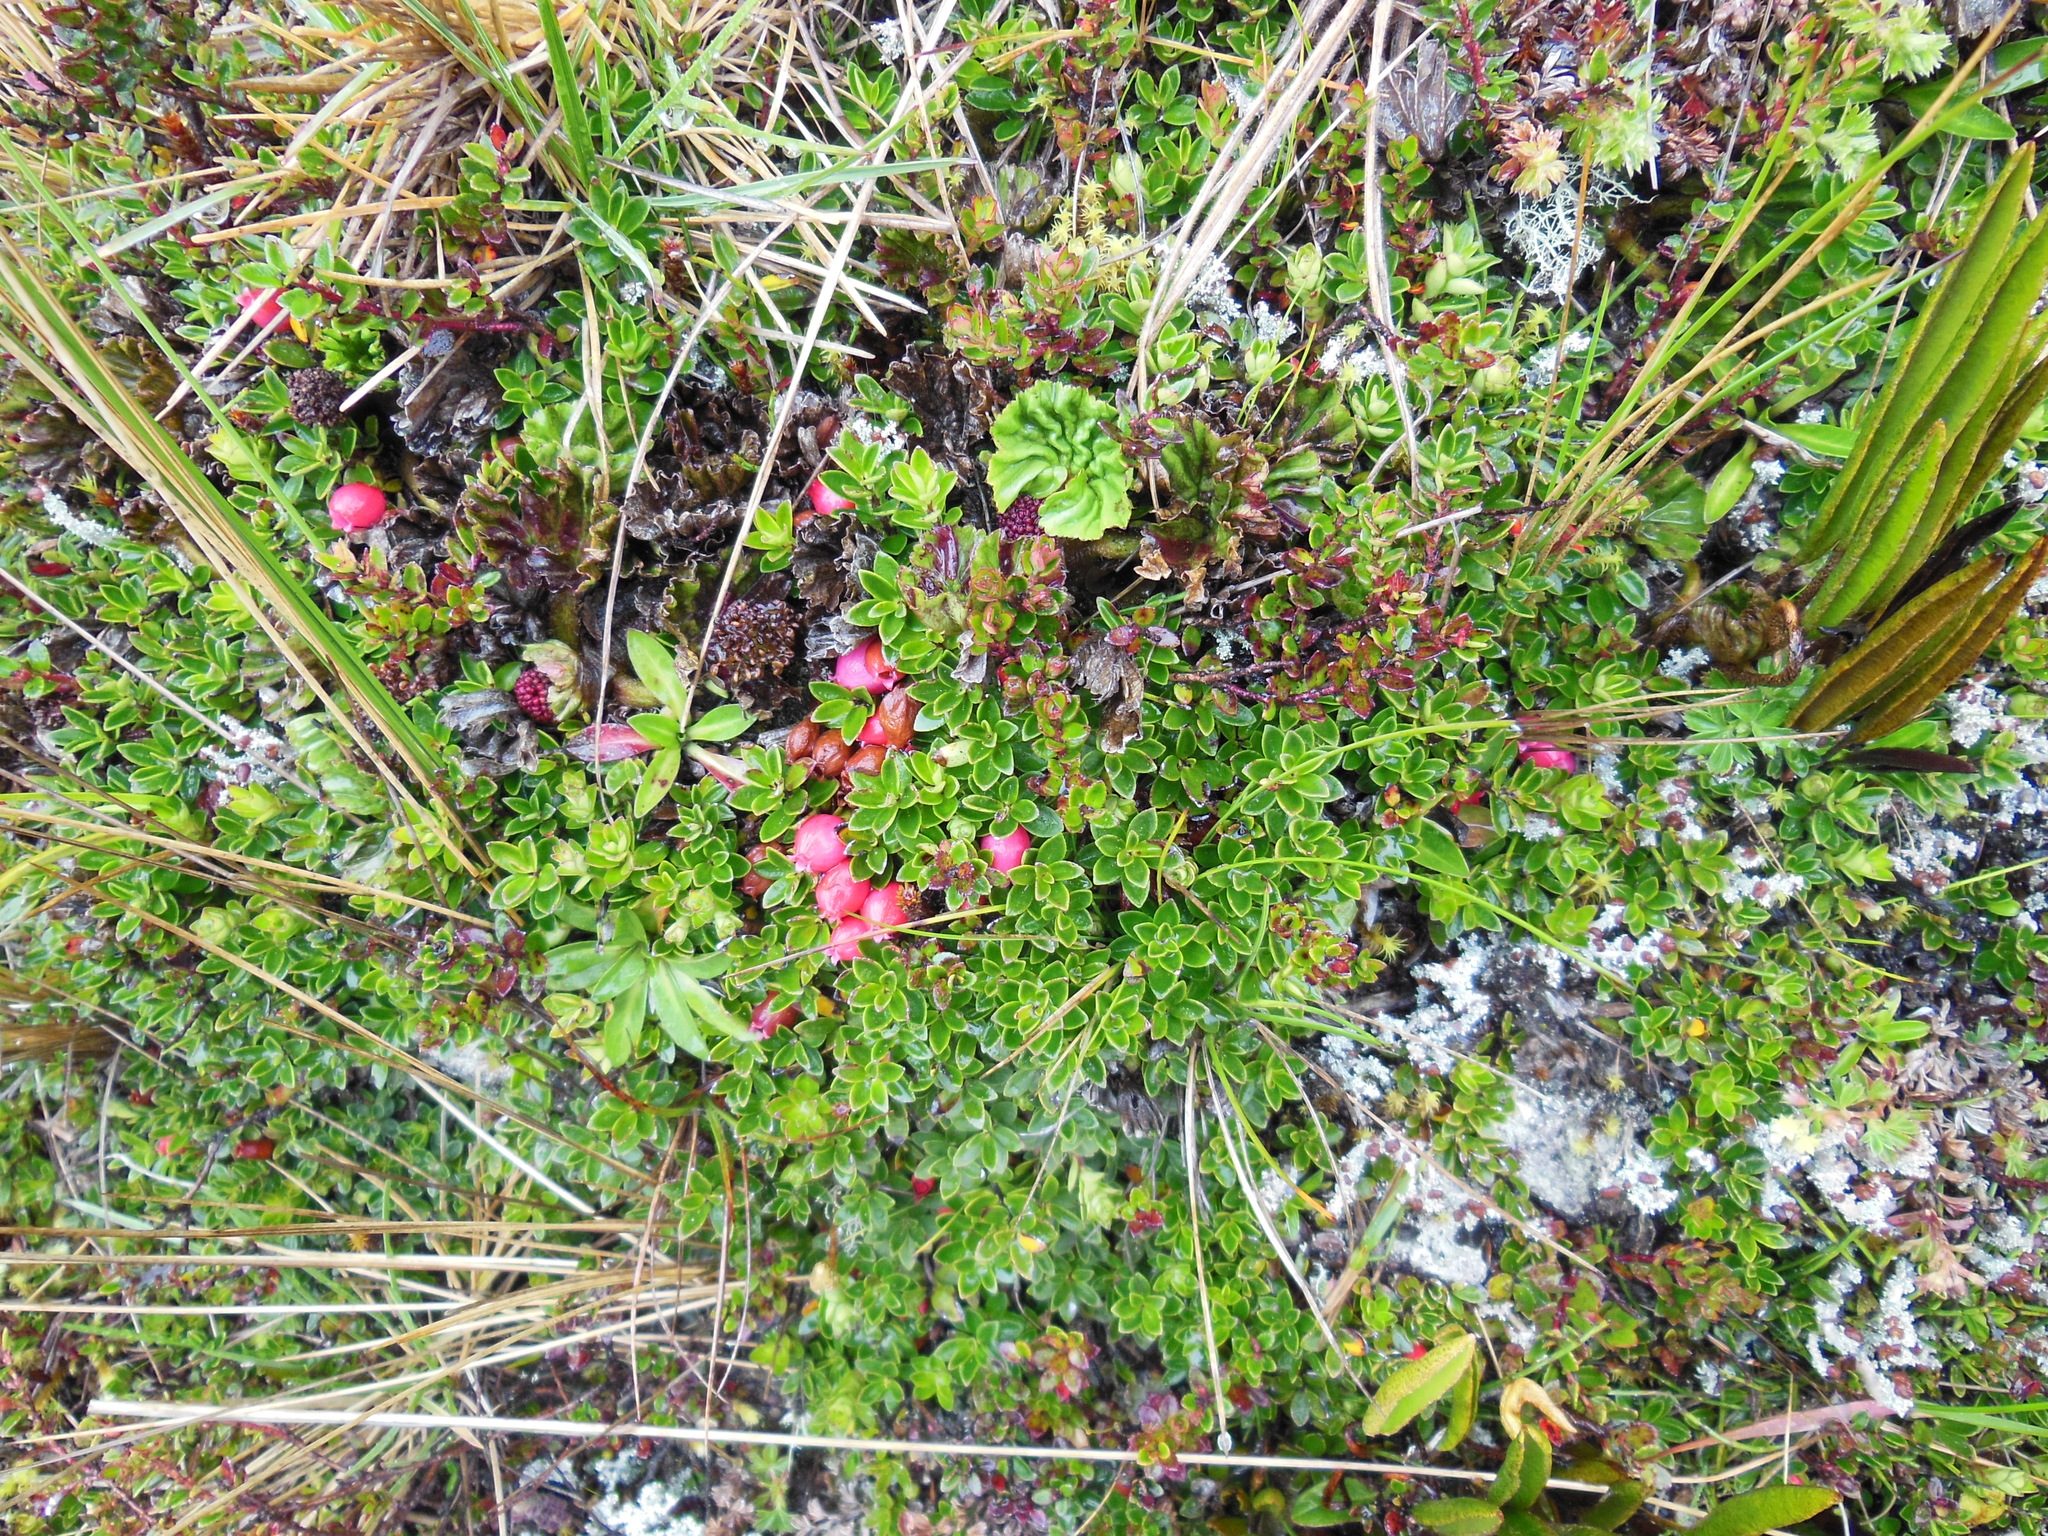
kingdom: Plantae
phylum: Tracheophyta
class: Magnoliopsida
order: Ericales
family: Ericaceae
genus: Disterigma
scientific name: Disterigma empetrifolium
